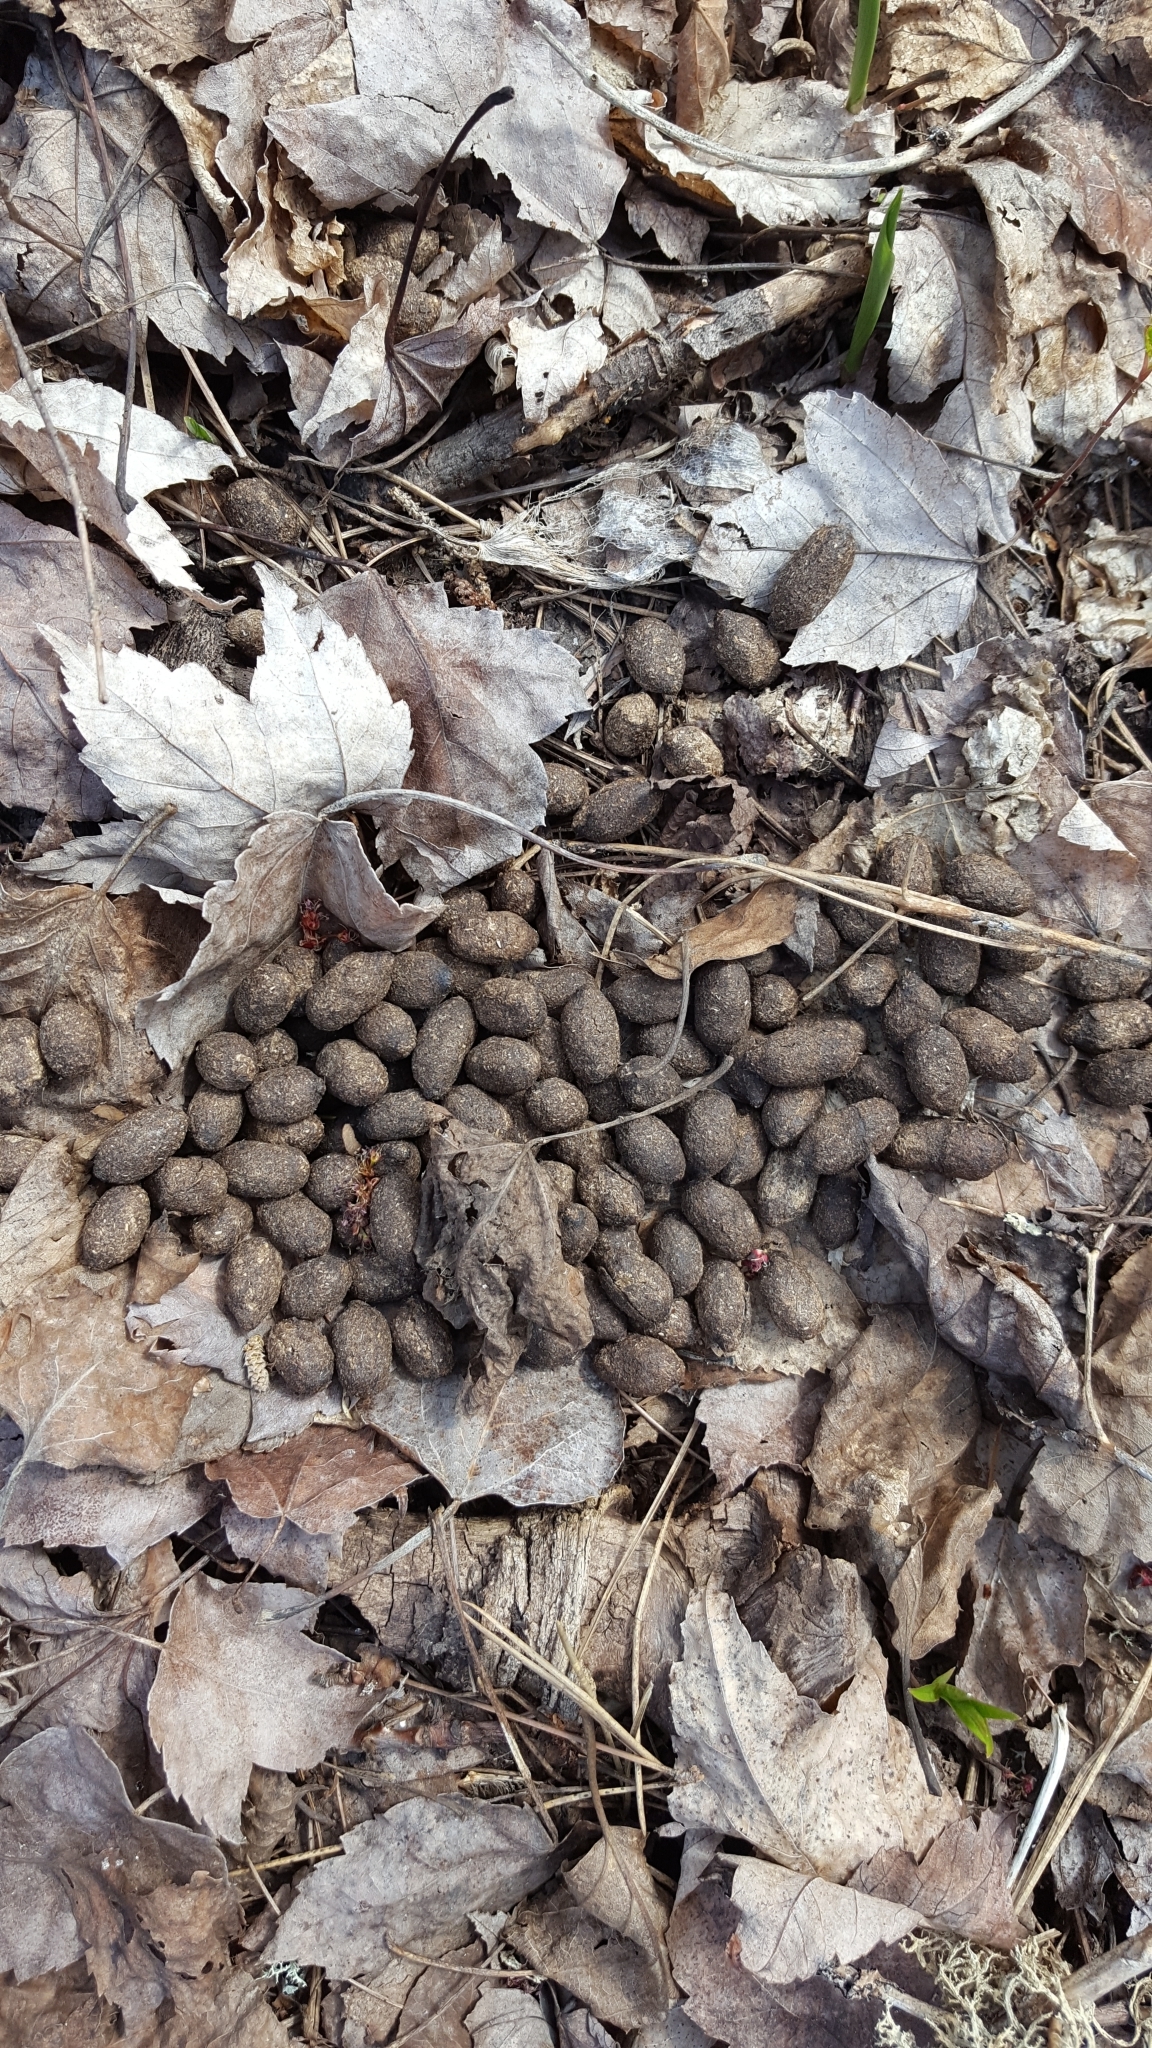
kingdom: Animalia
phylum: Chordata
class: Mammalia
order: Artiodactyla
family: Cervidae
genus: Odocoileus
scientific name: Odocoileus virginianus
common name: White-tailed deer
